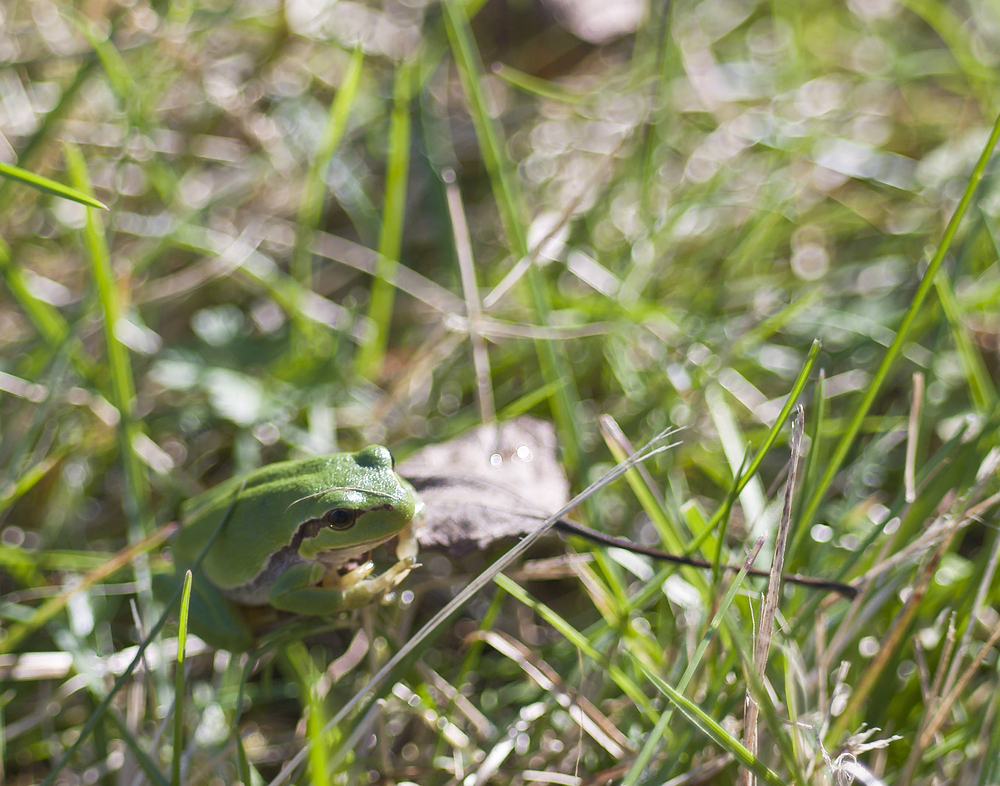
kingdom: Animalia
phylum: Chordata
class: Amphibia
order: Anura
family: Hylidae
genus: Hyla
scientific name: Hyla arborea
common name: Common tree frog
